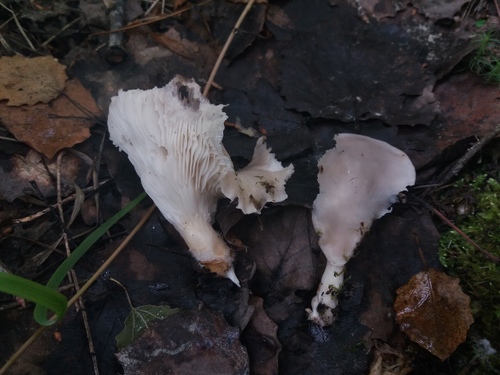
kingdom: Fungi
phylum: Basidiomycota
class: Agaricomycetes
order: Agaricales
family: Pleurotaceae
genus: Pleurotus
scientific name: Pleurotus pulmonarius
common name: Pale oyster
